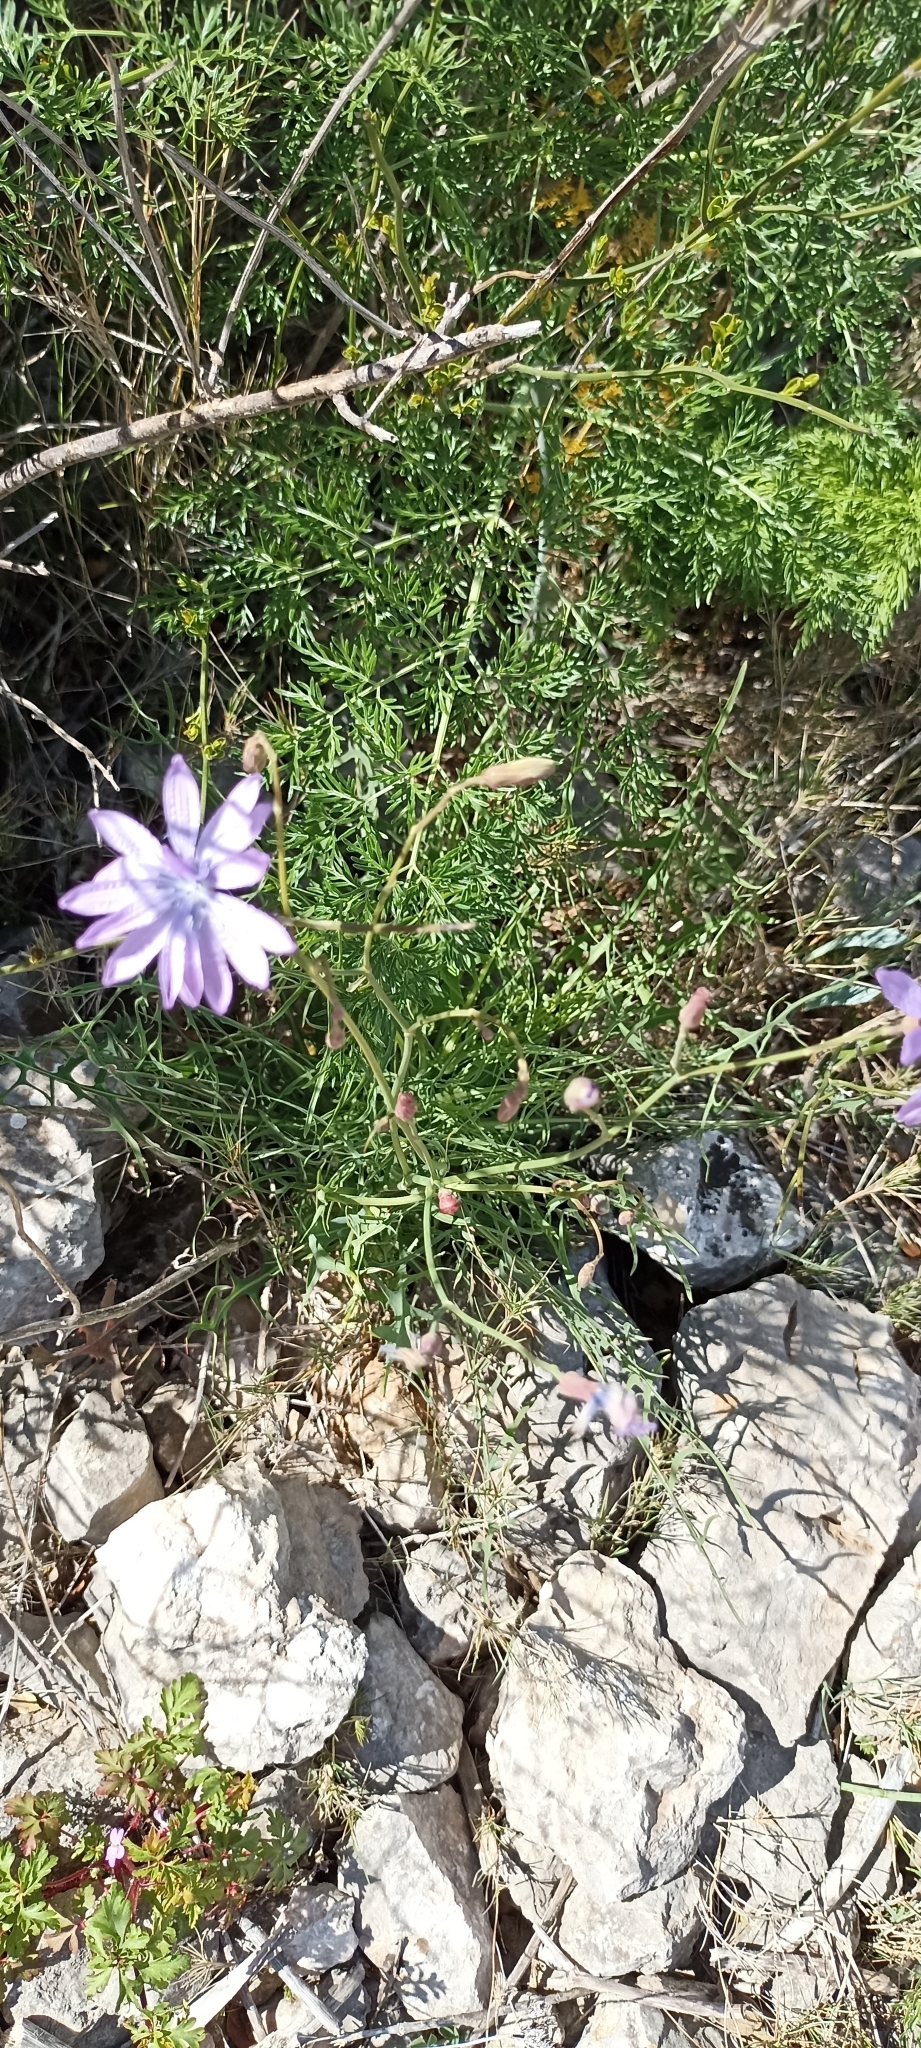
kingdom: Plantae
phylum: Tracheophyta
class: Magnoliopsida
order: Asterales
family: Asteraceae
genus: Lactuca
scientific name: Lactuca perennis
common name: Mountain lettuce
